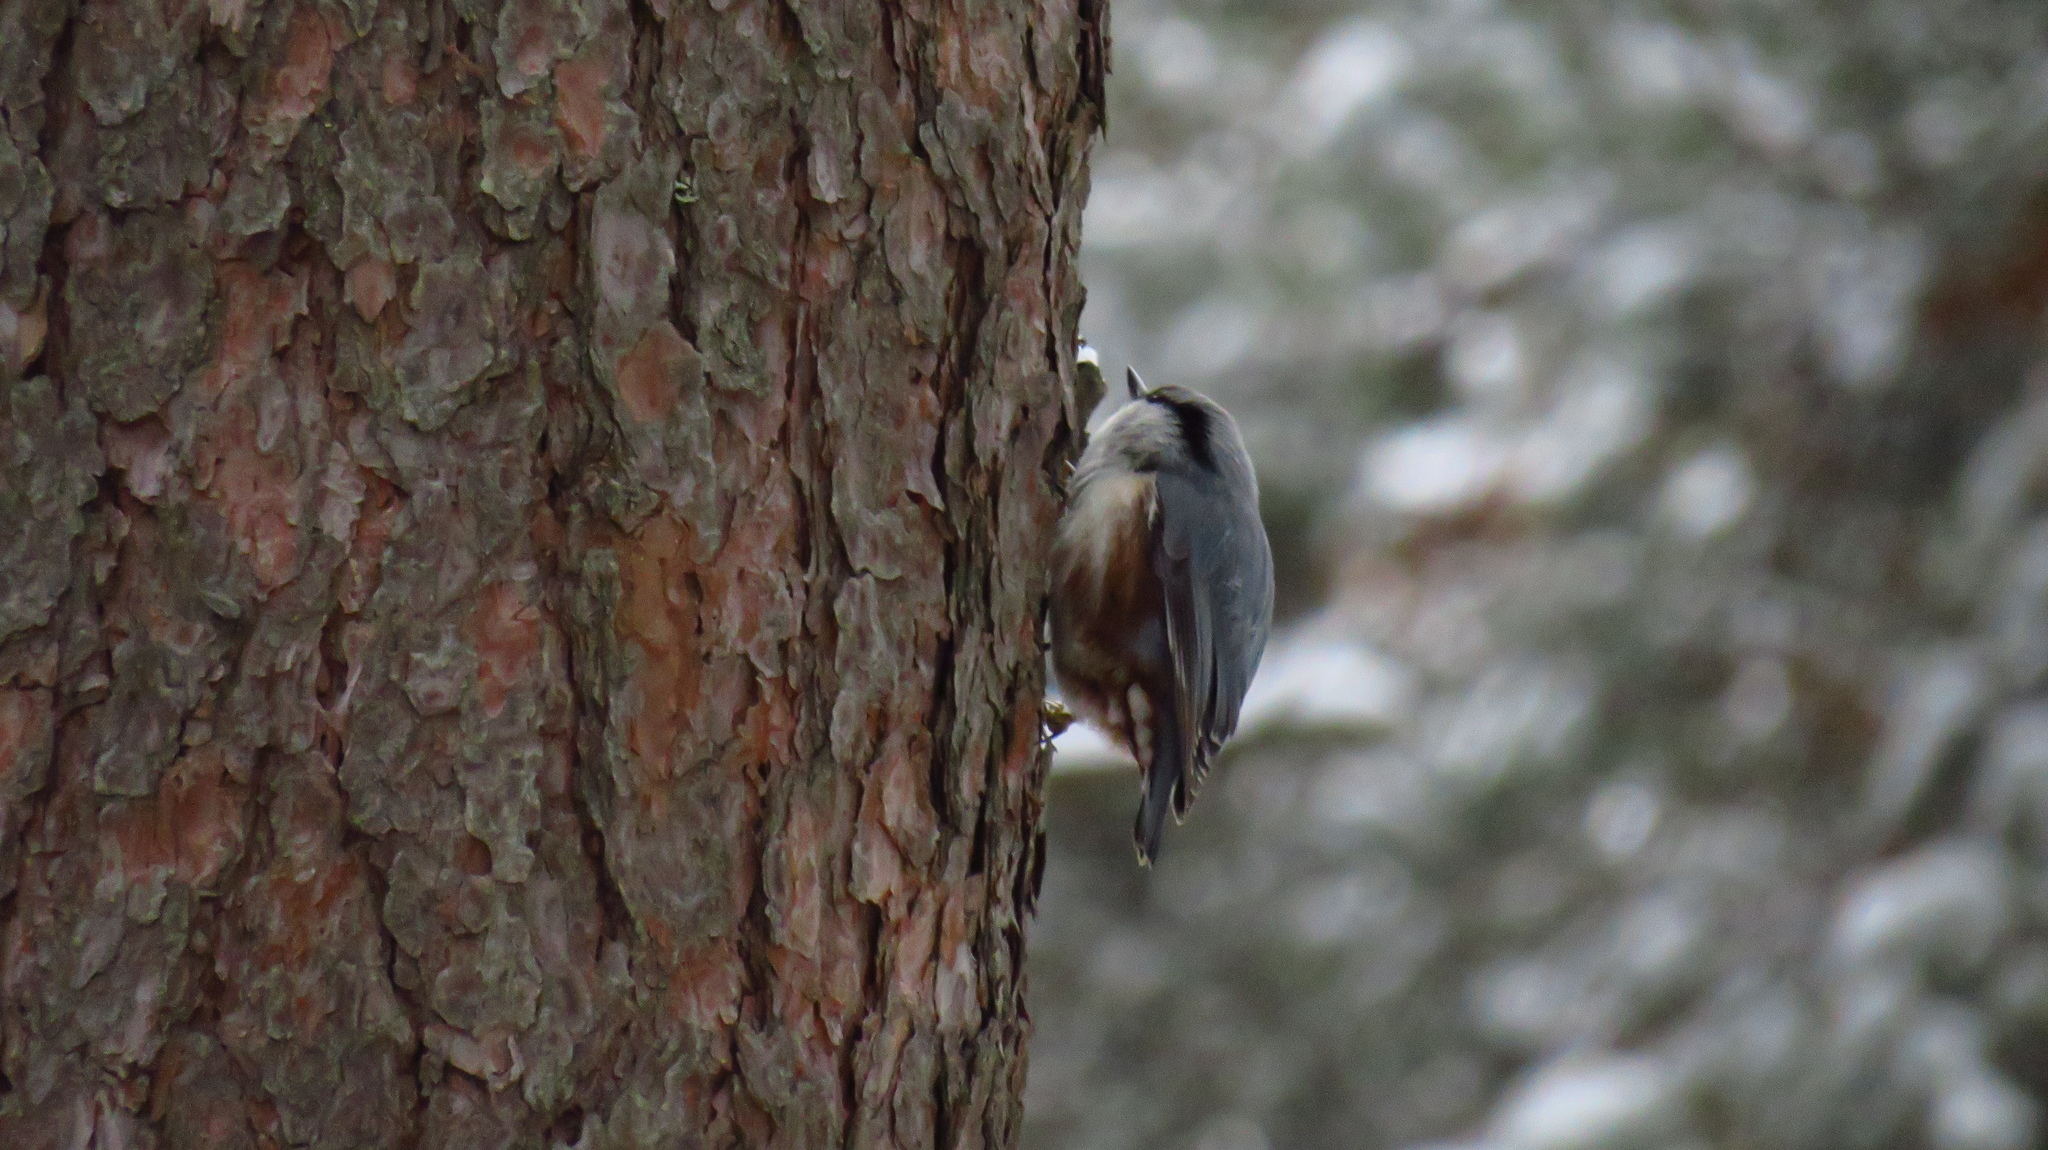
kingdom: Animalia
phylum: Chordata
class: Aves
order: Passeriformes
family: Sittidae
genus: Sitta
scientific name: Sitta europaea
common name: Eurasian nuthatch
